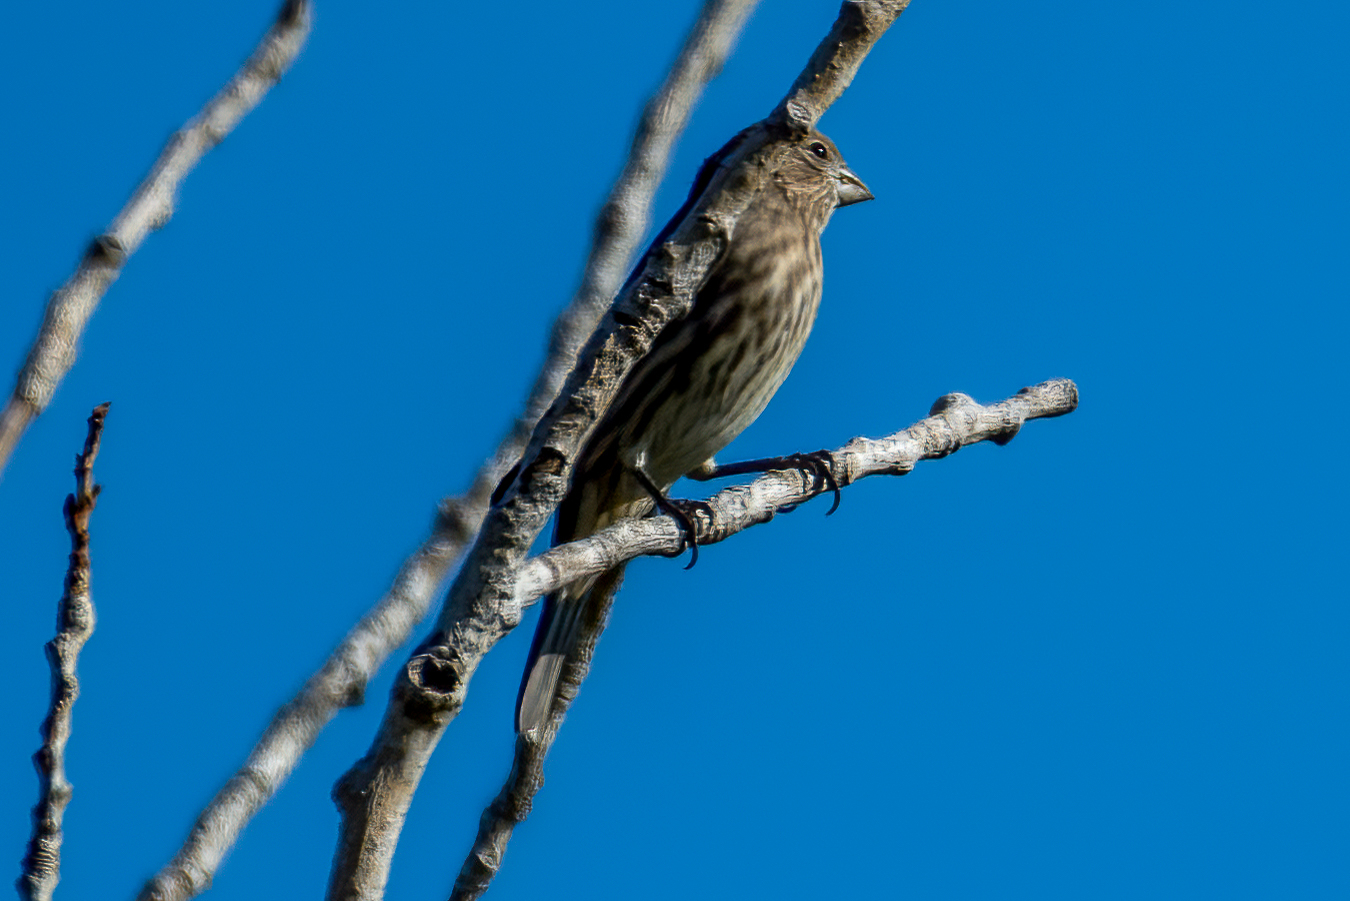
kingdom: Animalia
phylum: Chordata
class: Aves
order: Passeriformes
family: Fringillidae
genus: Haemorhous
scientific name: Haemorhous mexicanus
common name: House finch
